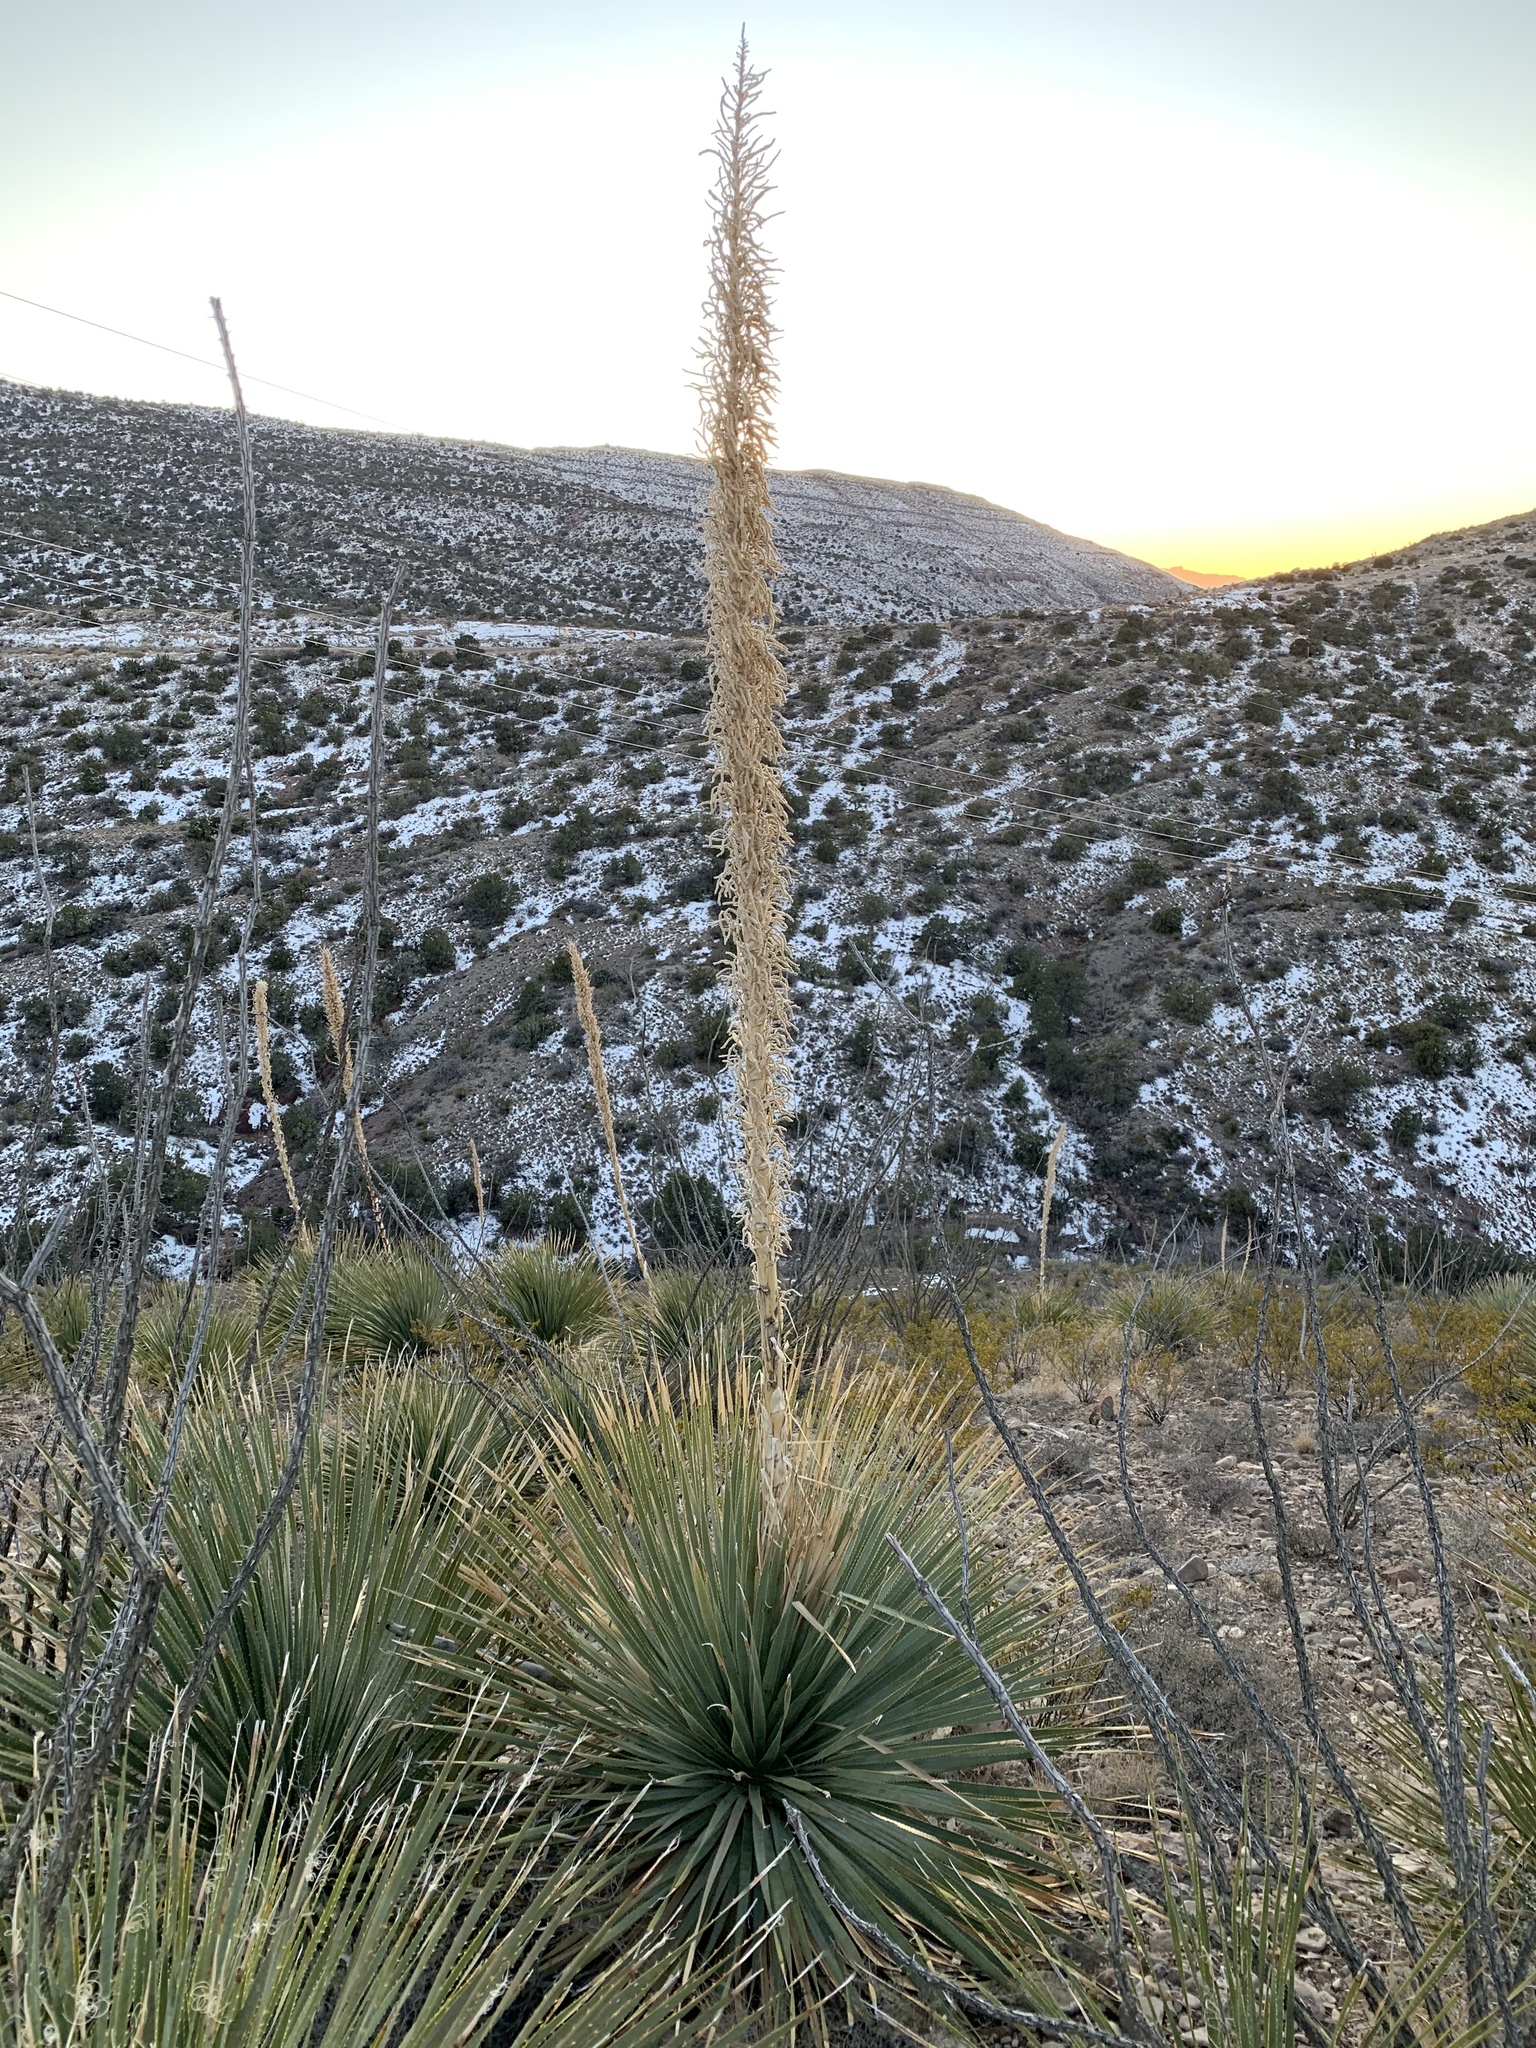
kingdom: Plantae
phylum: Tracheophyta
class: Liliopsida
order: Asparagales
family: Asparagaceae
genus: Dasylirion
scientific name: Dasylirion wheeleri
